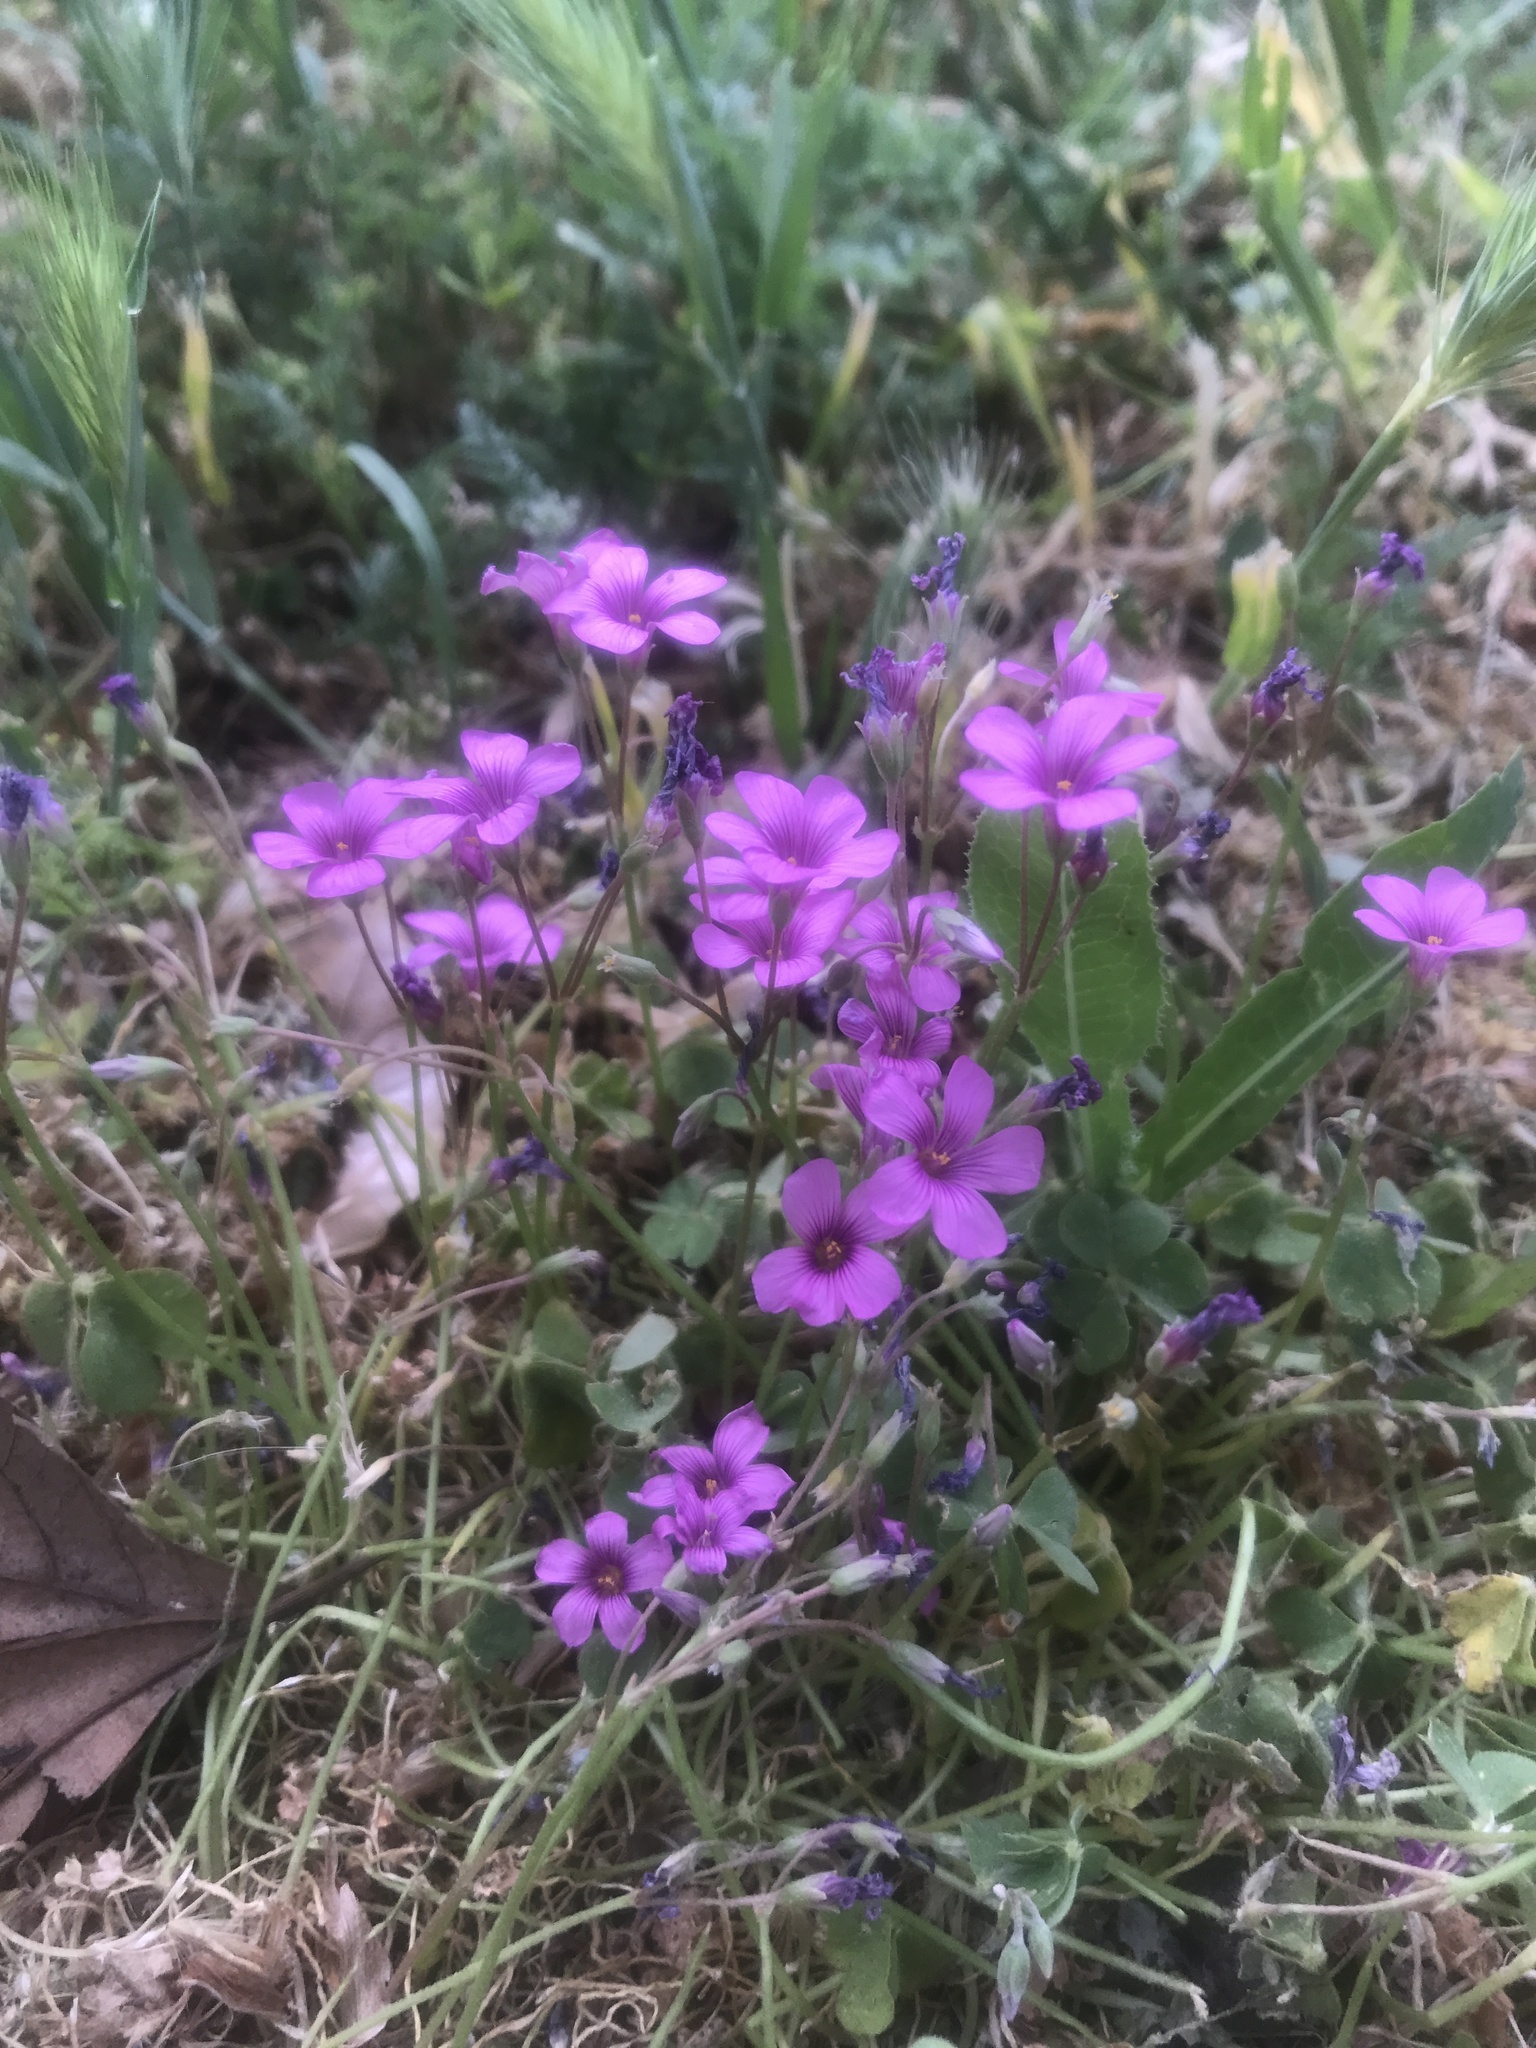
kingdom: Plantae
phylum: Tracheophyta
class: Magnoliopsida
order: Oxalidales
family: Oxalidaceae
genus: Oxalis
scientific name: Oxalis articulata
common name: Pink-sorrel
